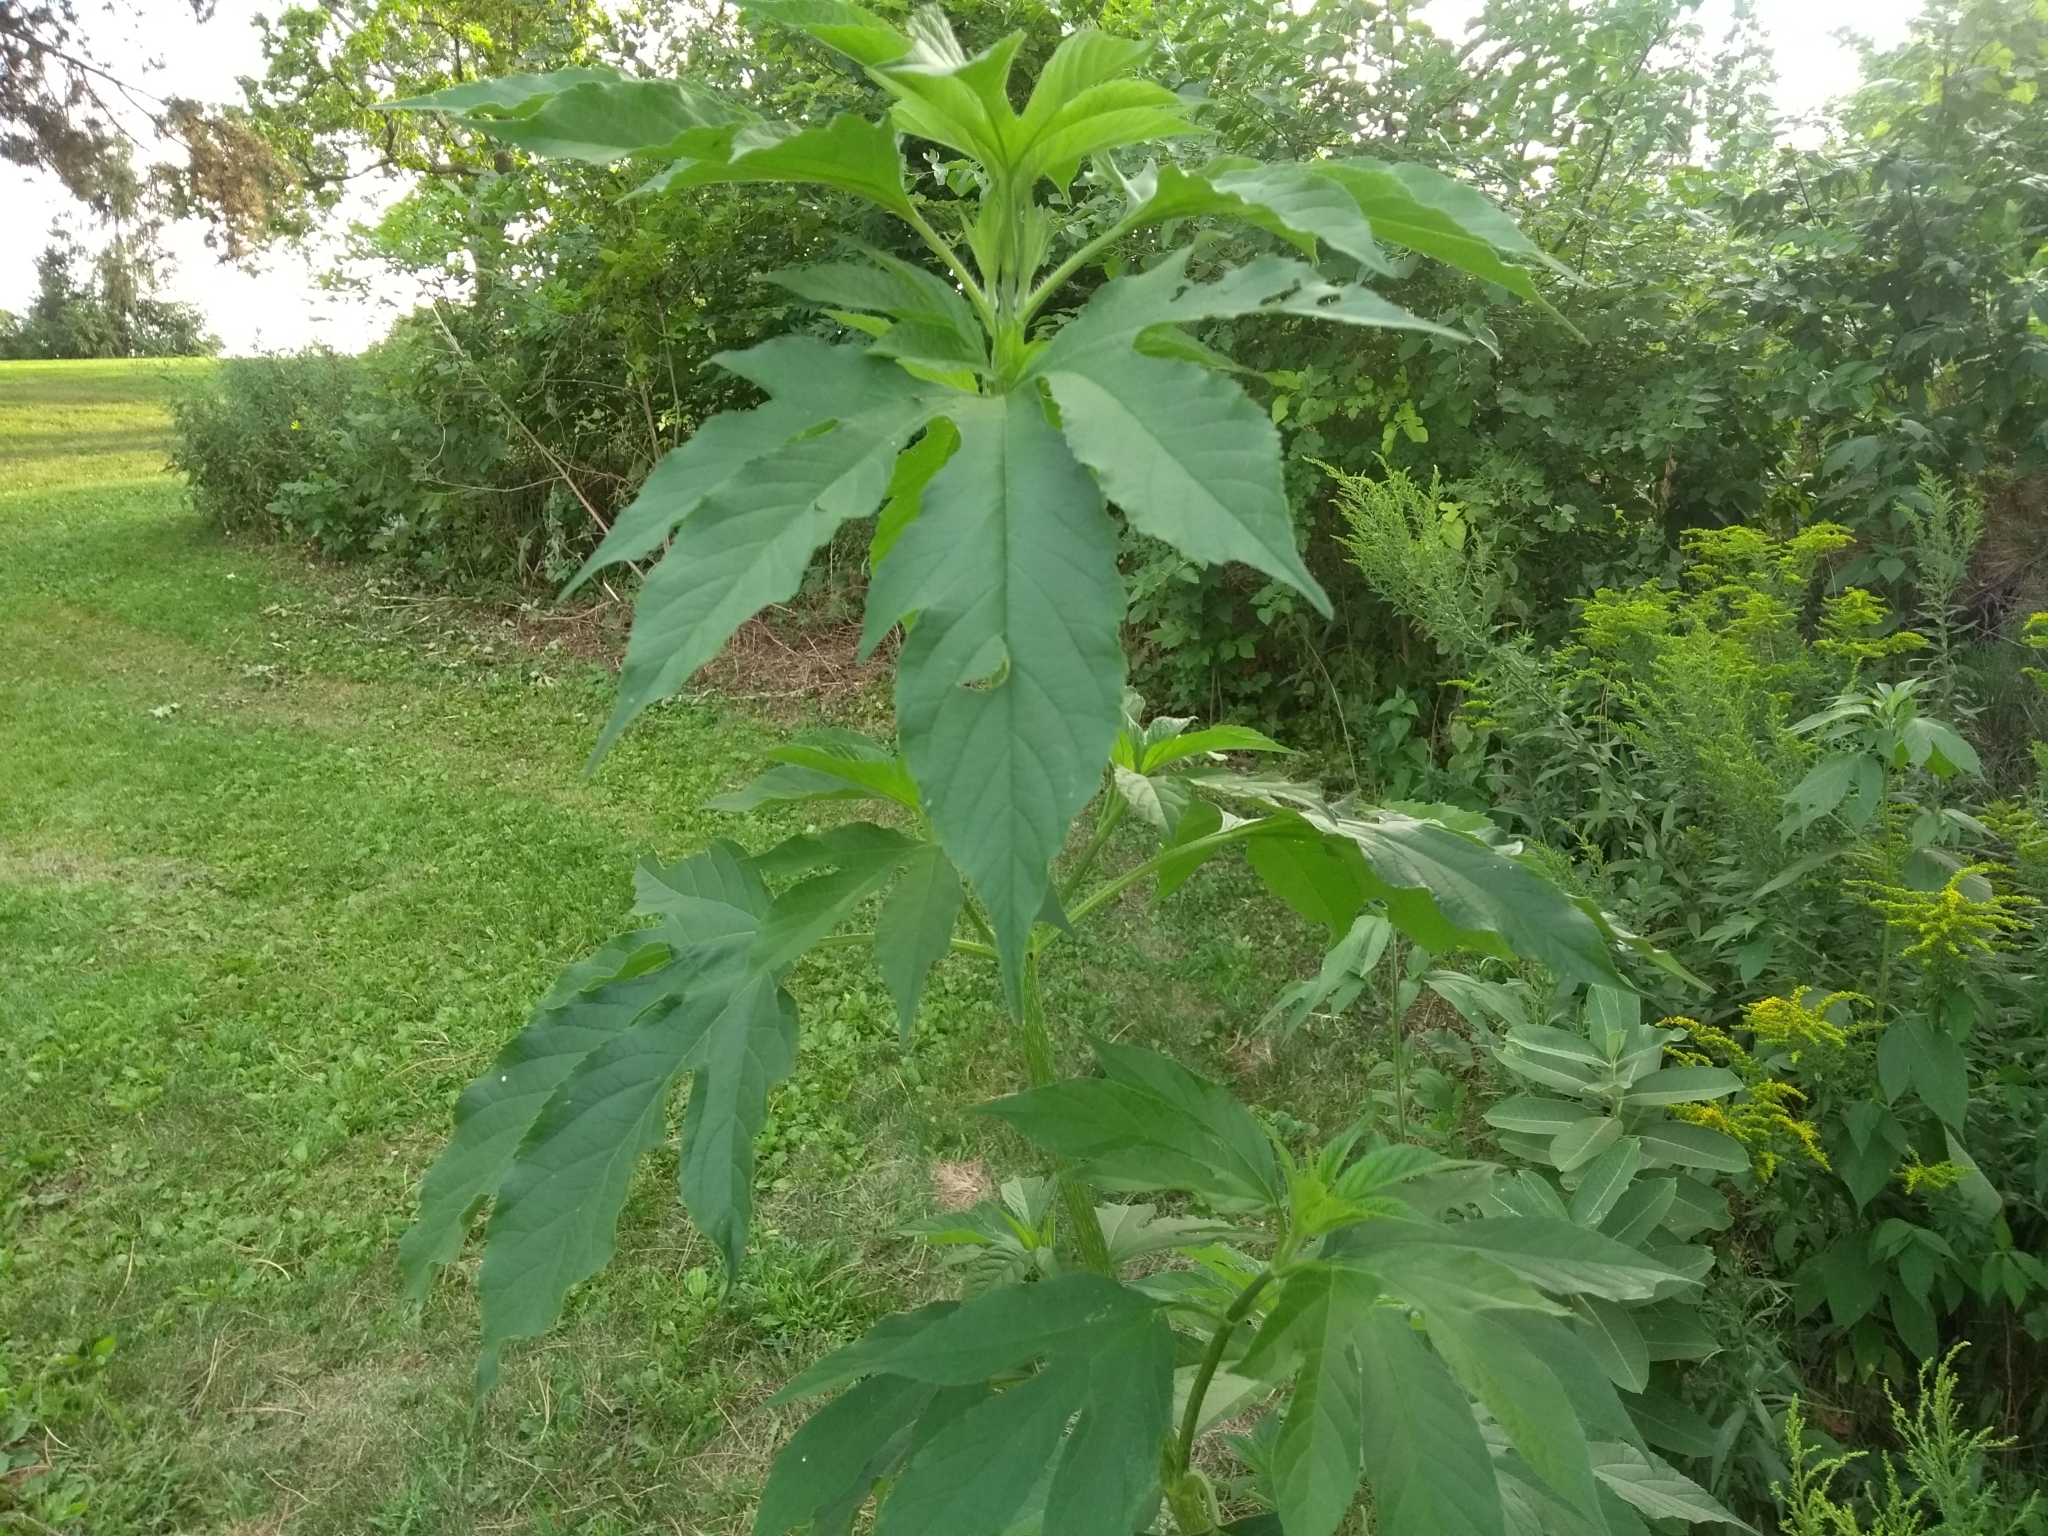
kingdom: Plantae
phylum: Tracheophyta
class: Magnoliopsida
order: Asterales
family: Asteraceae
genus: Ambrosia
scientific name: Ambrosia trifida
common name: Giant ragweed
